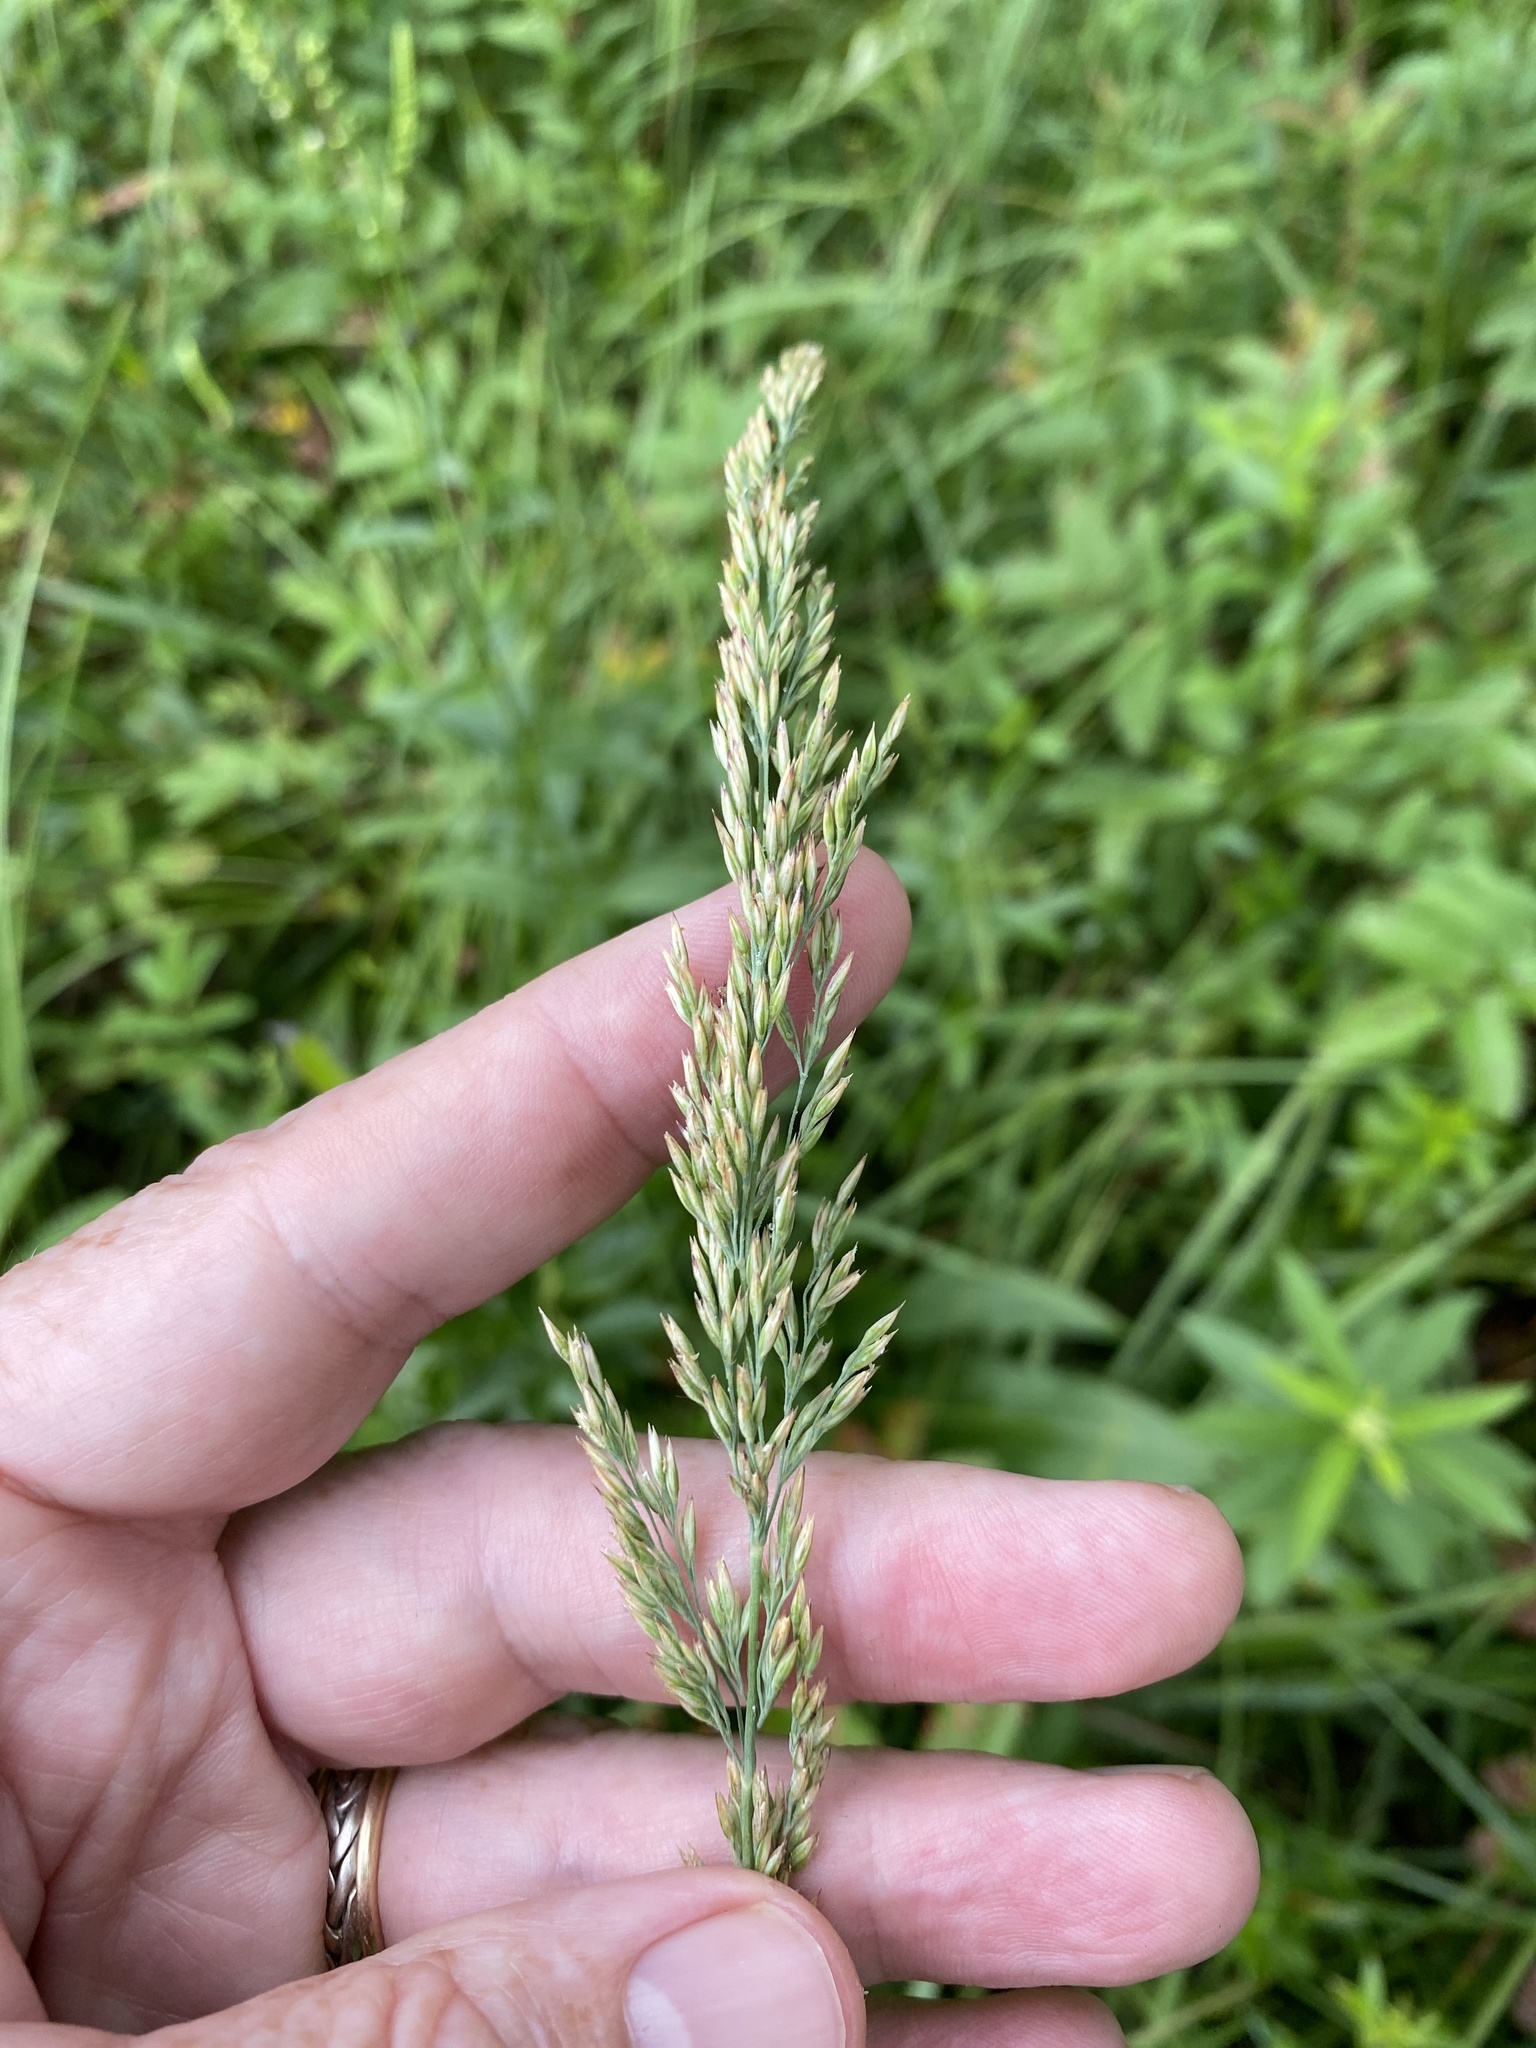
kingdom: Plantae
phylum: Tracheophyta
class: Liliopsida
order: Poales
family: Poaceae
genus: Calamagrostis
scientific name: Calamagrostis inexpansa
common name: Northern reedgrass
